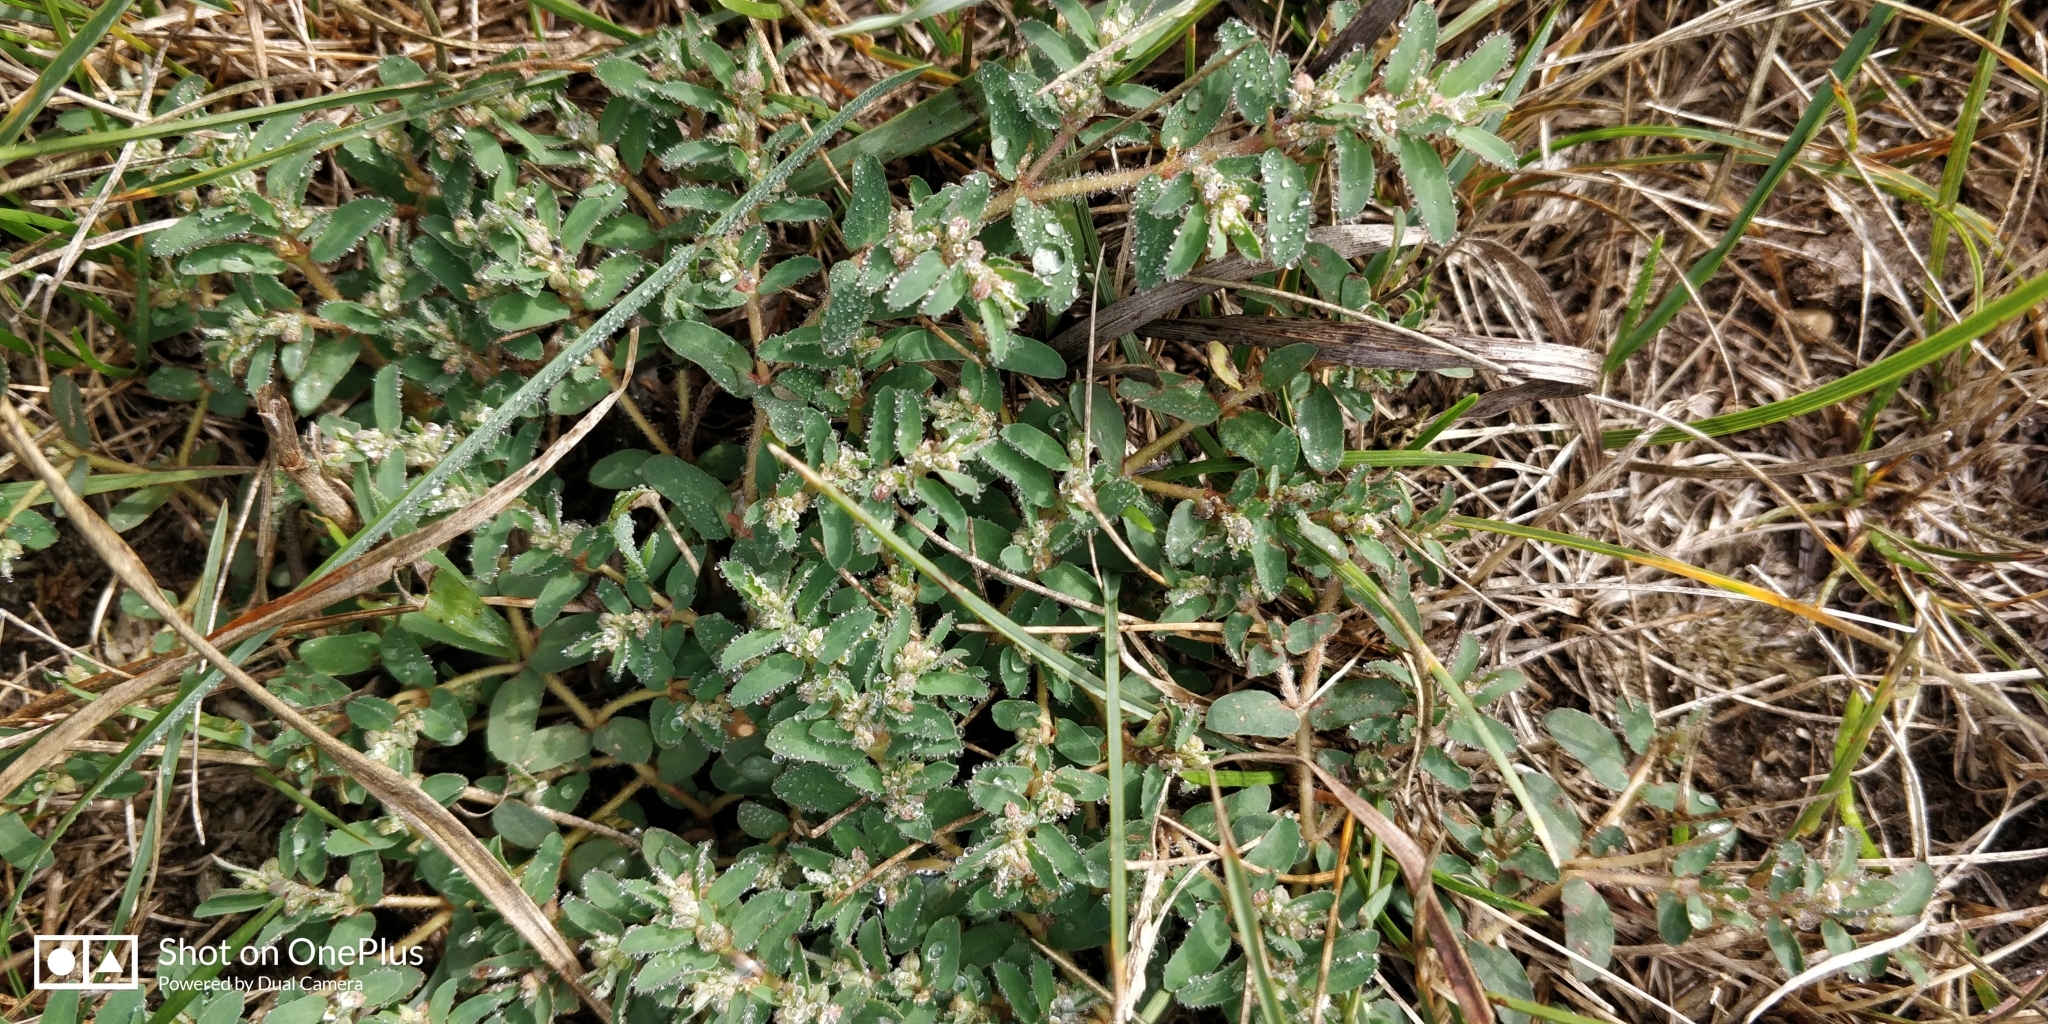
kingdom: Plantae
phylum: Tracheophyta
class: Magnoliopsida
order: Malpighiales
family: Euphorbiaceae
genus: Euphorbia
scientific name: Euphorbia maculata
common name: Spotted spurge
